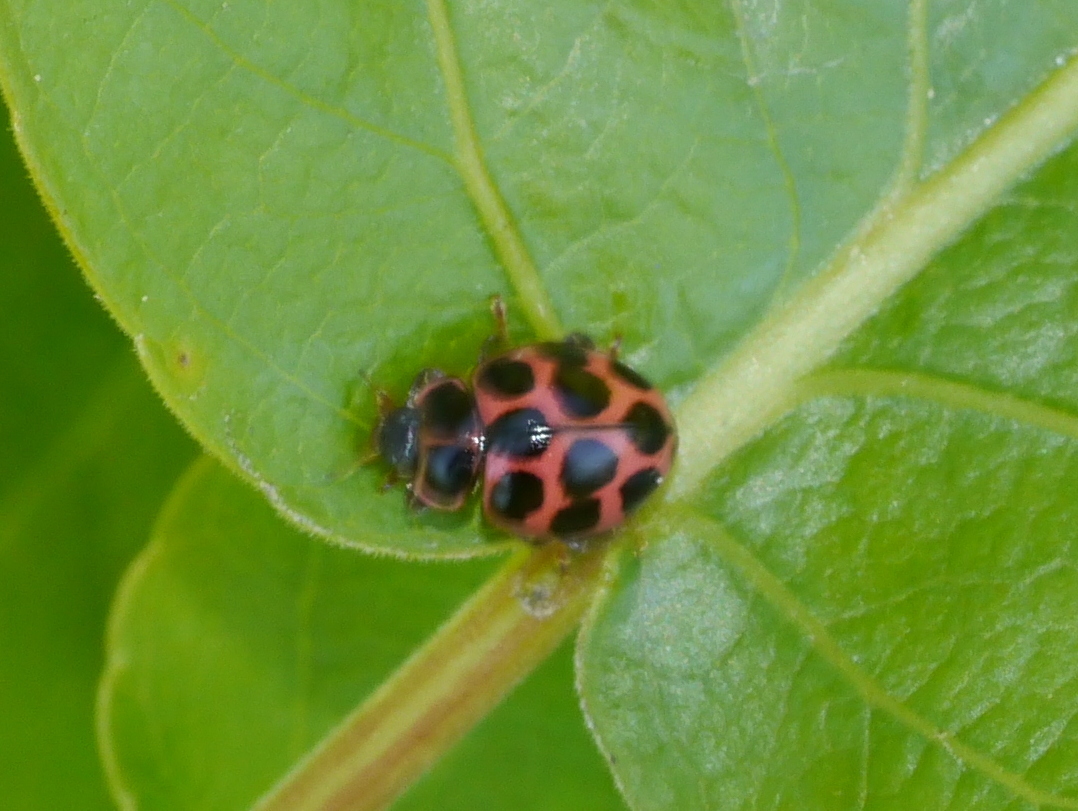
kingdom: Animalia
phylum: Arthropoda
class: Insecta
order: Coleoptera
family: Coccinellidae
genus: Calvia
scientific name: Calvia quatuordecimguttata
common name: Cream-spot ladybird
